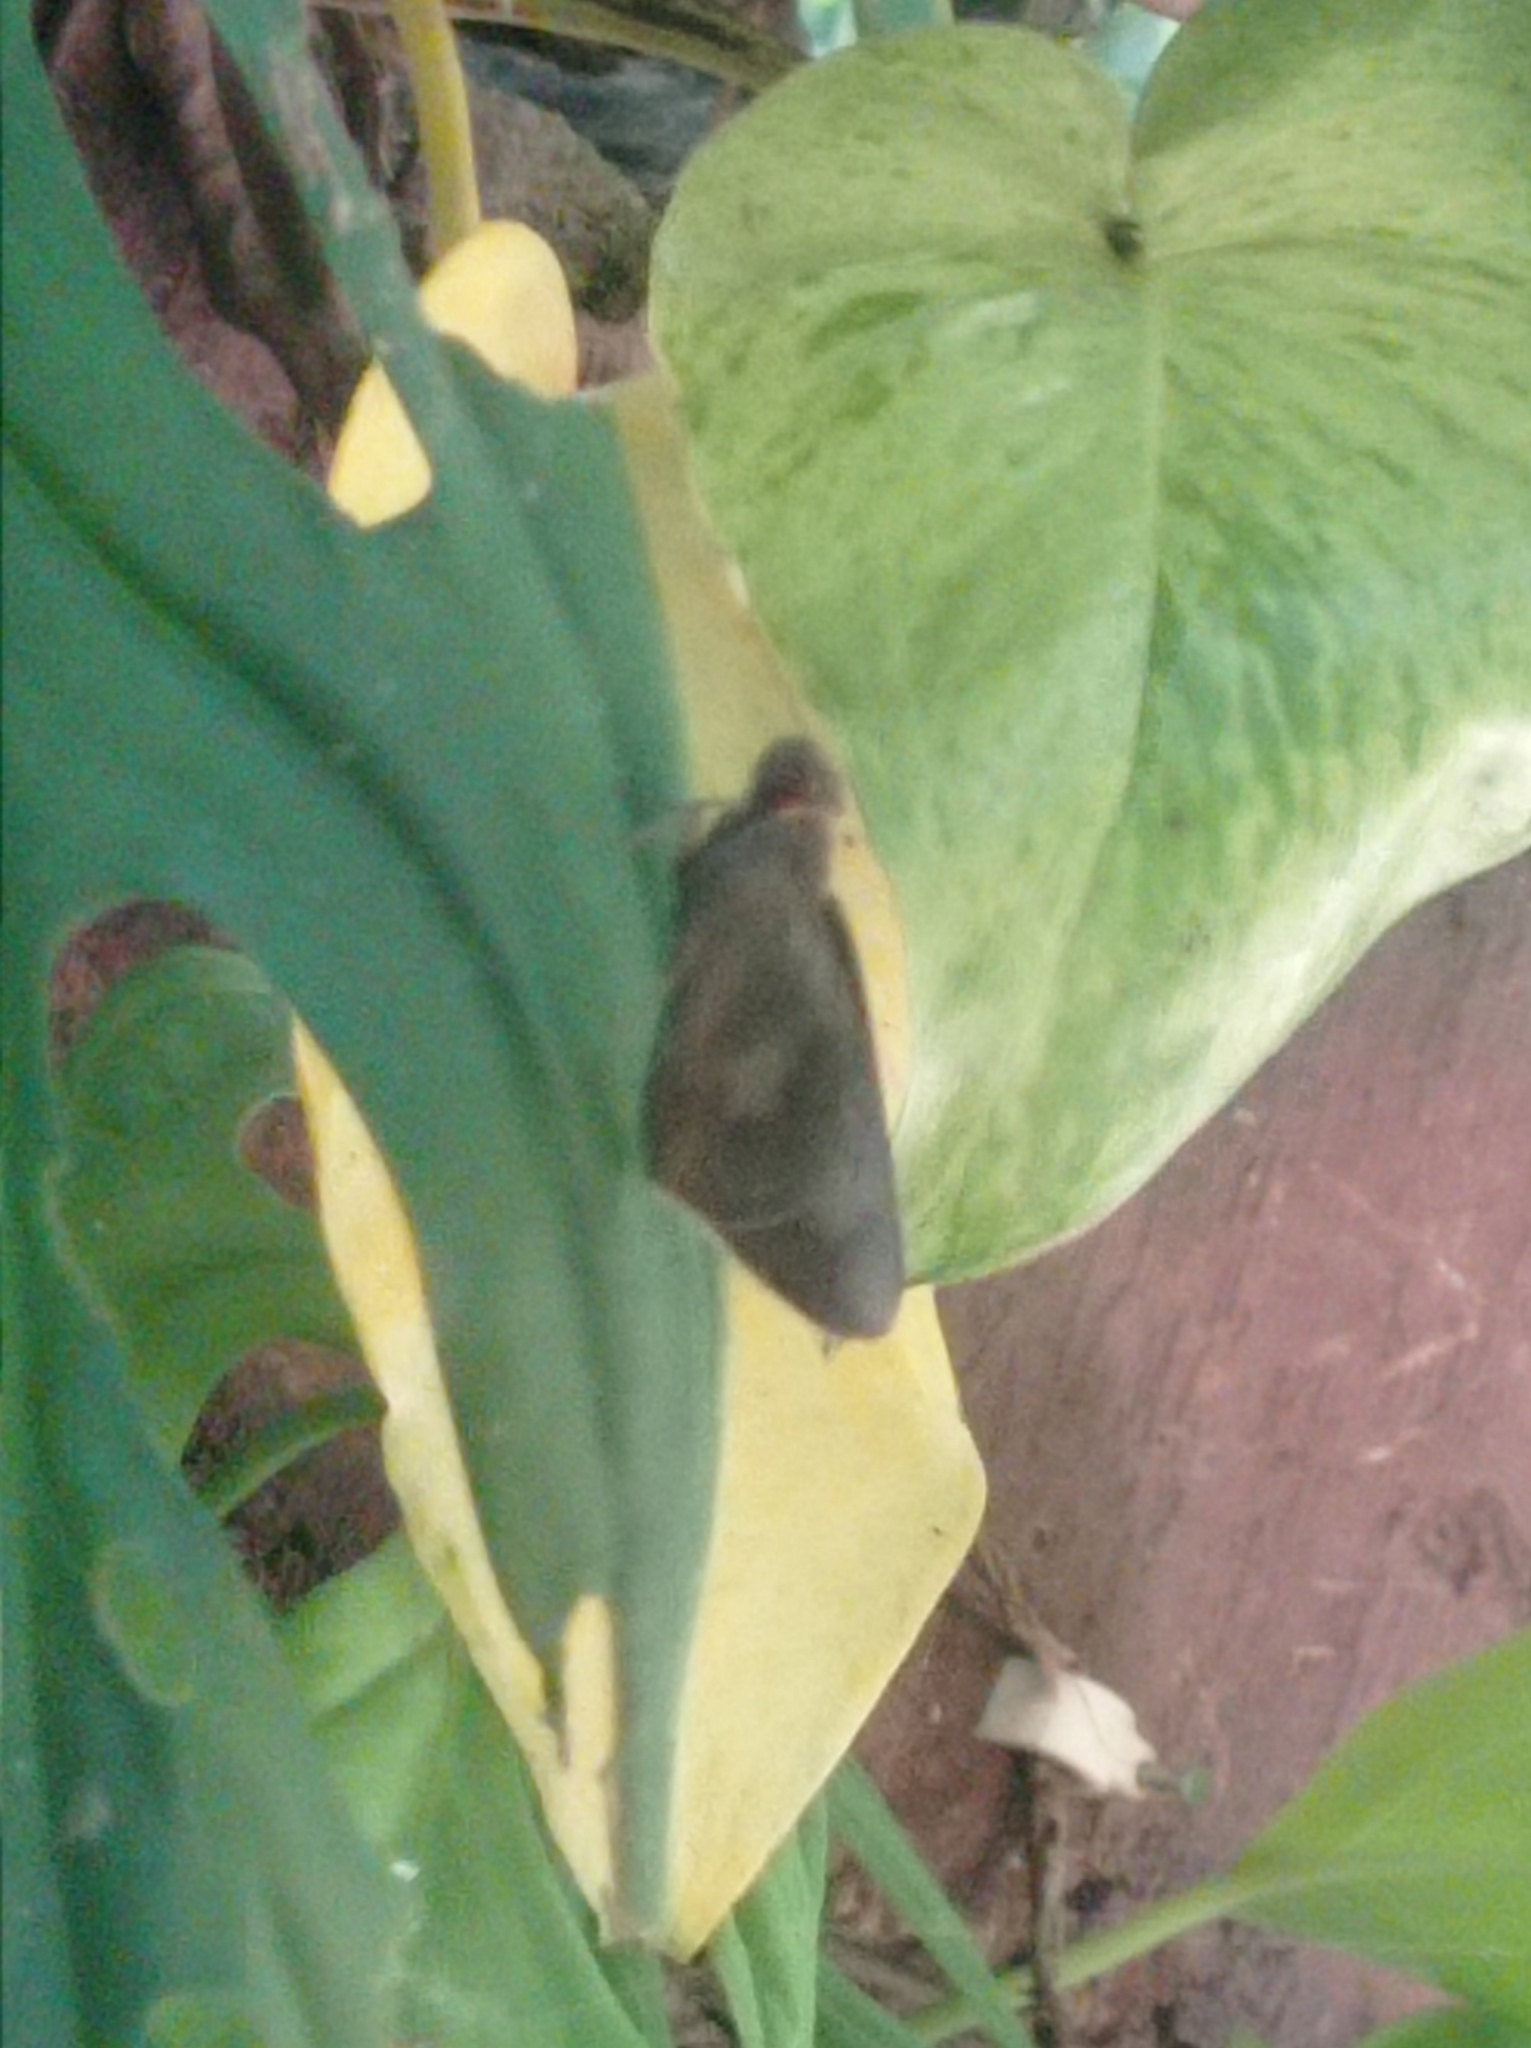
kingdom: Animalia
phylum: Arthropoda
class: Insecta
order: Lepidoptera
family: Hesperiidae
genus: Erionota
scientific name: Erionota thrax
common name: Banana skipper
